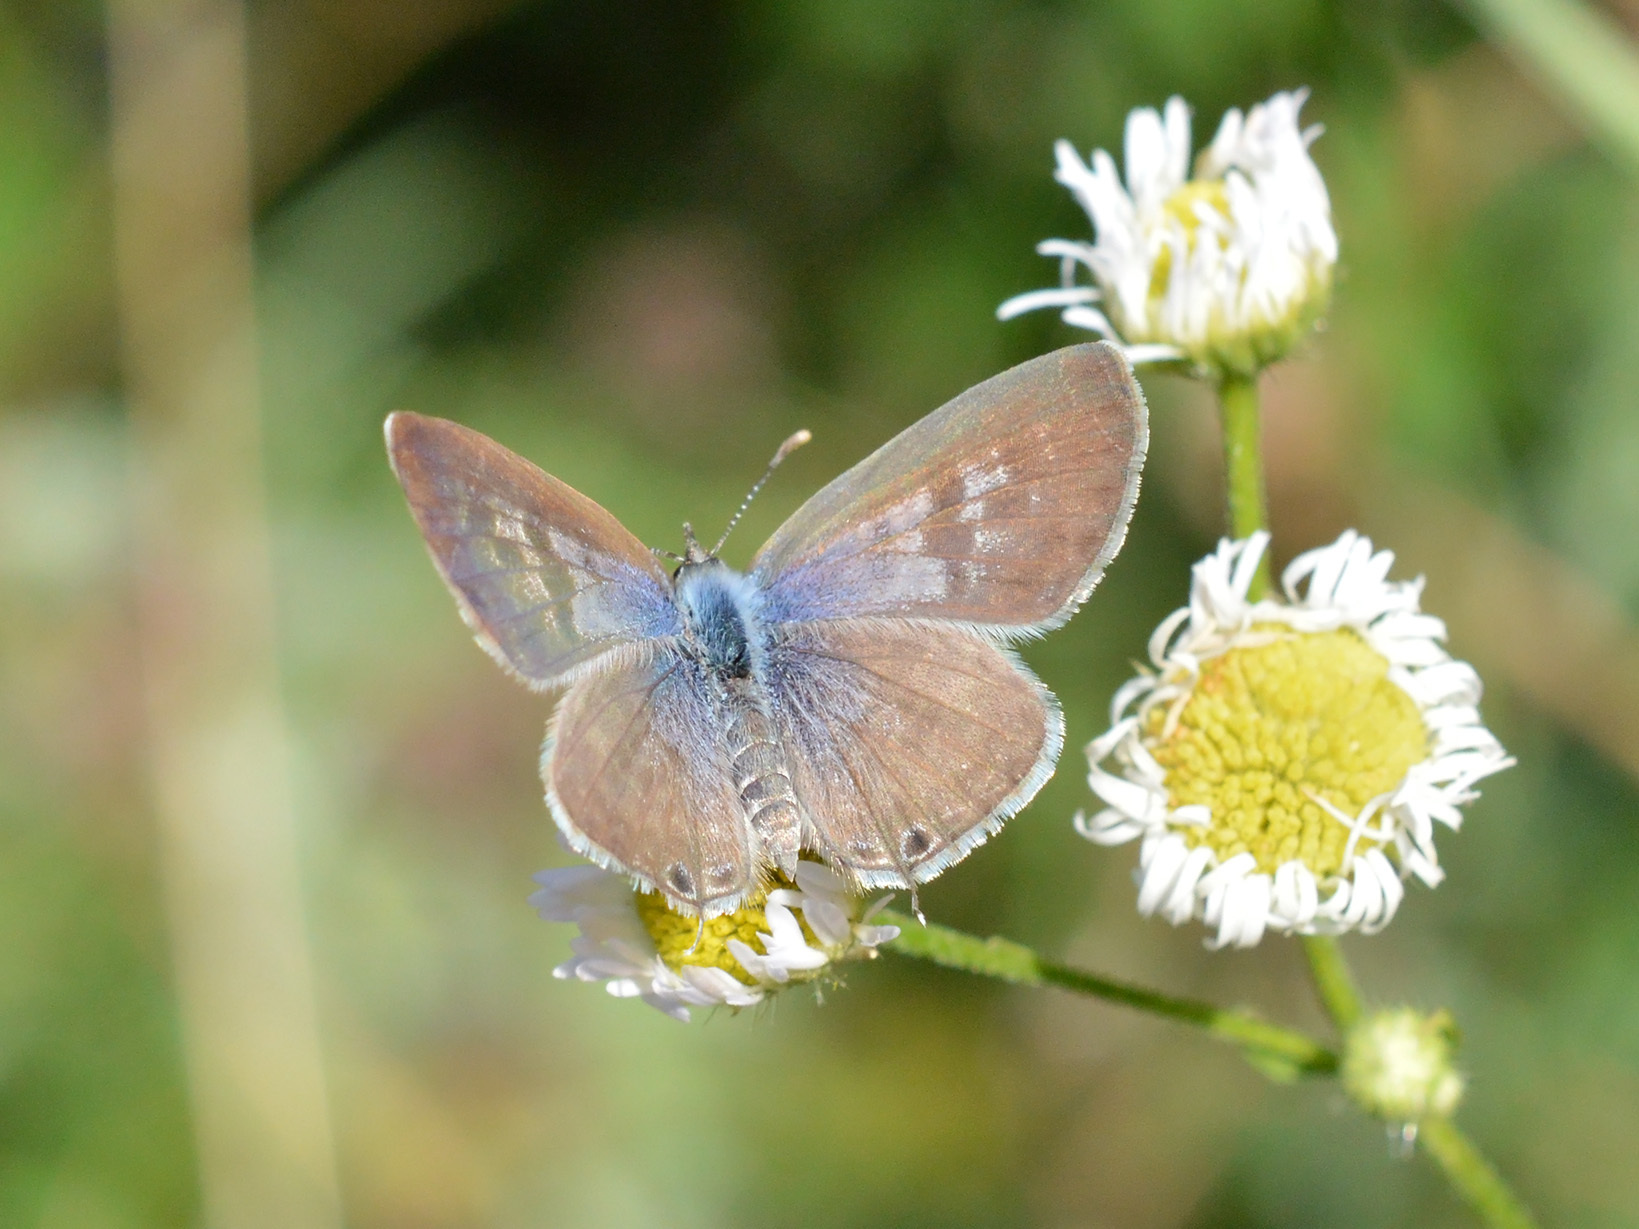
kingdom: Animalia
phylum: Arthropoda
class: Insecta
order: Lepidoptera
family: Lycaenidae
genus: Leptotes
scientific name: Leptotes pirithous
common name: Lang's short-tailed blue
